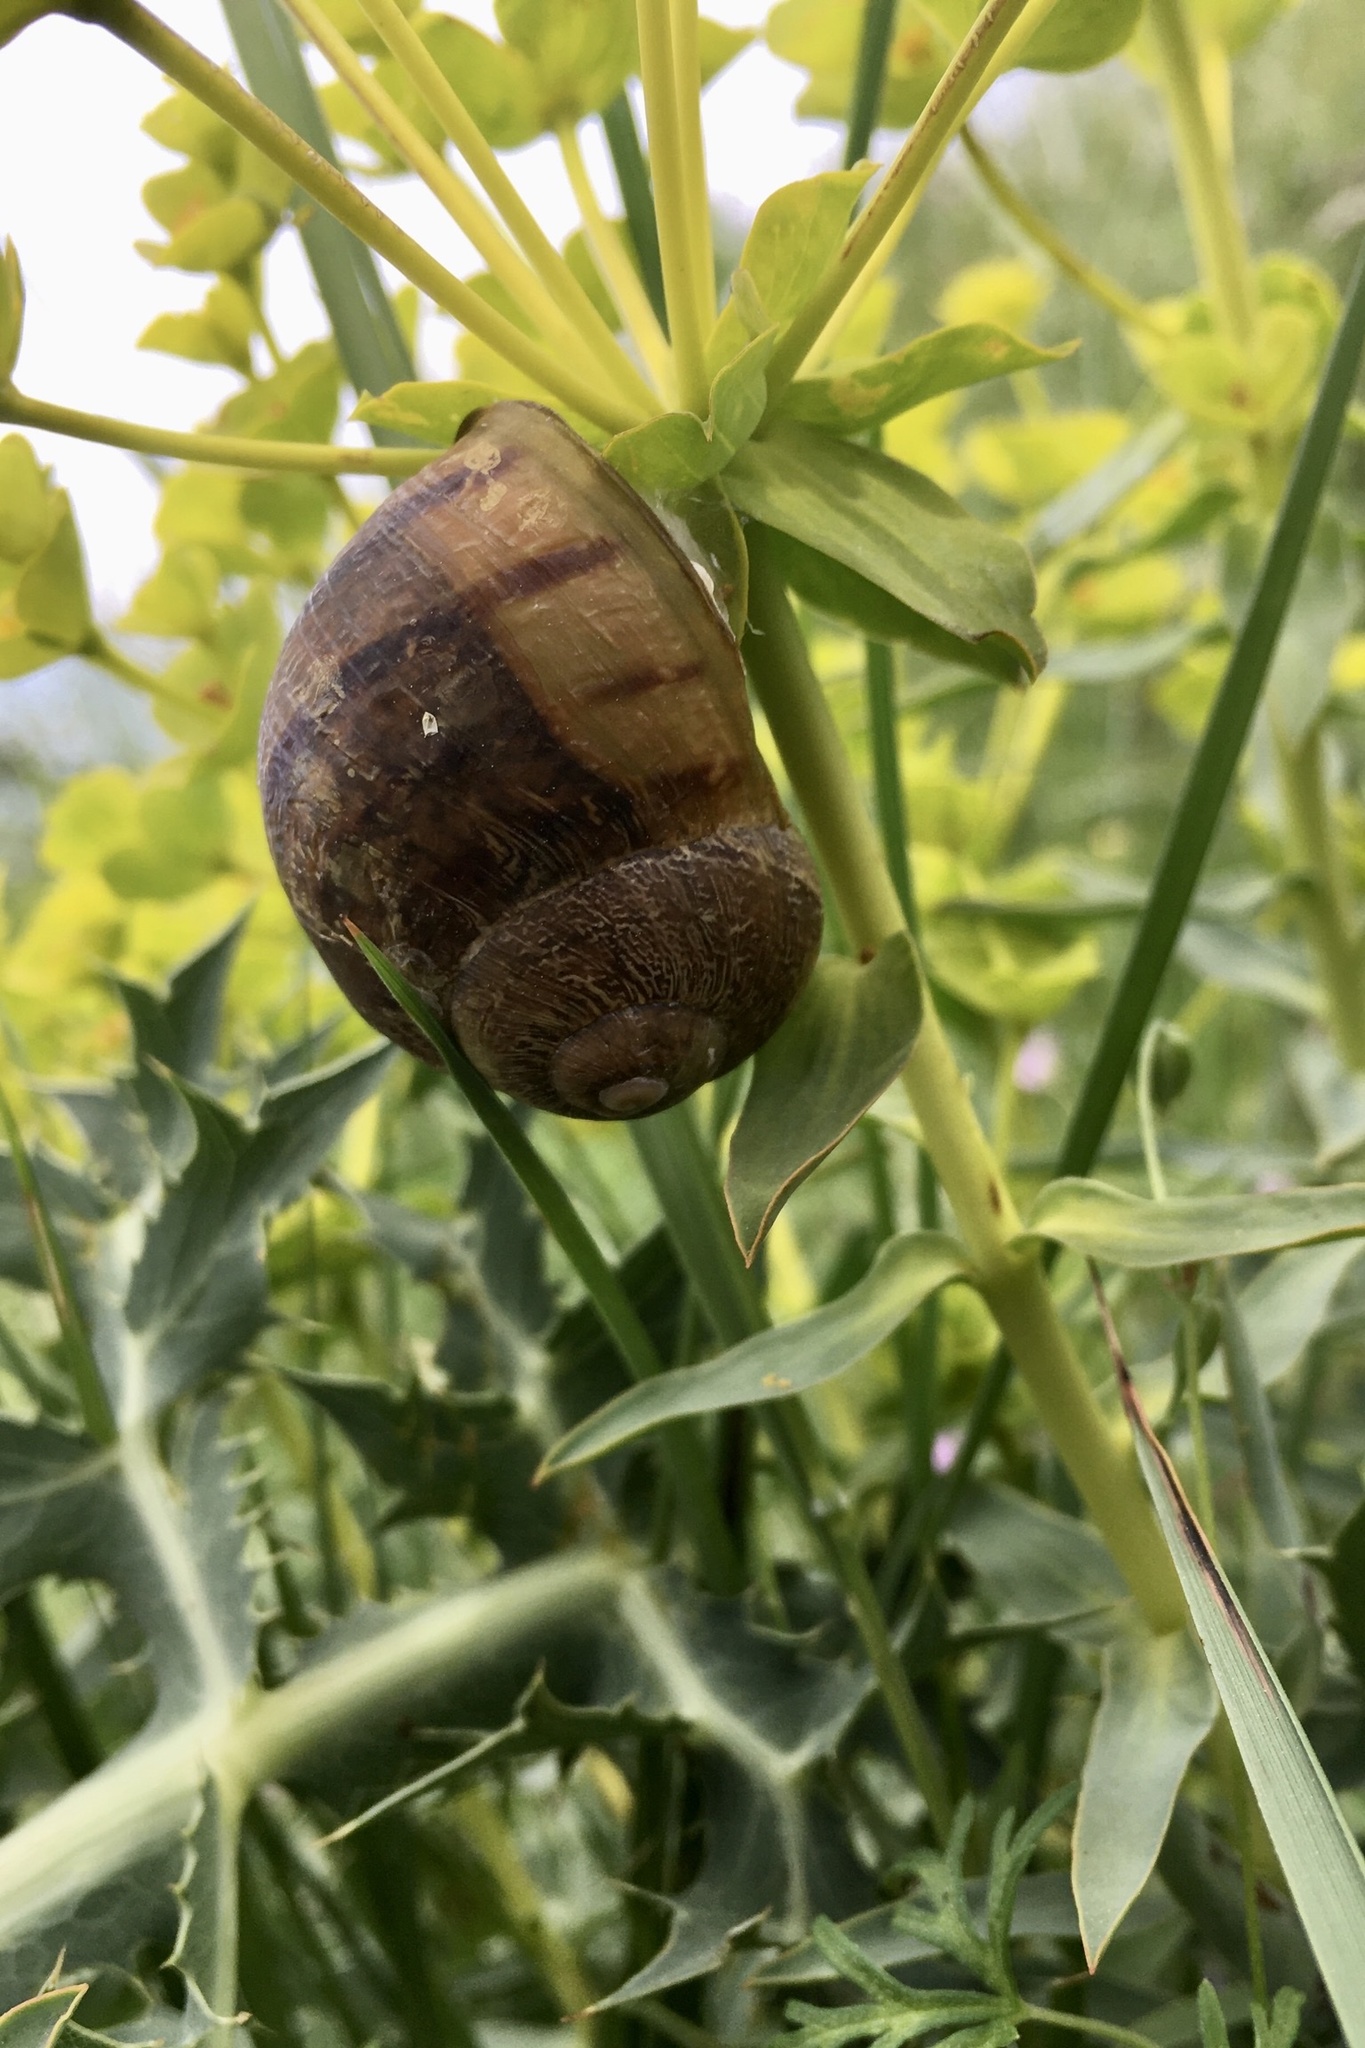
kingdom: Animalia
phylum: Mollusca
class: Gastropoda
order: Stylommatophora
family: Helicidae
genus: Cornu
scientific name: Cornu aspersum
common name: Brown garden snail
